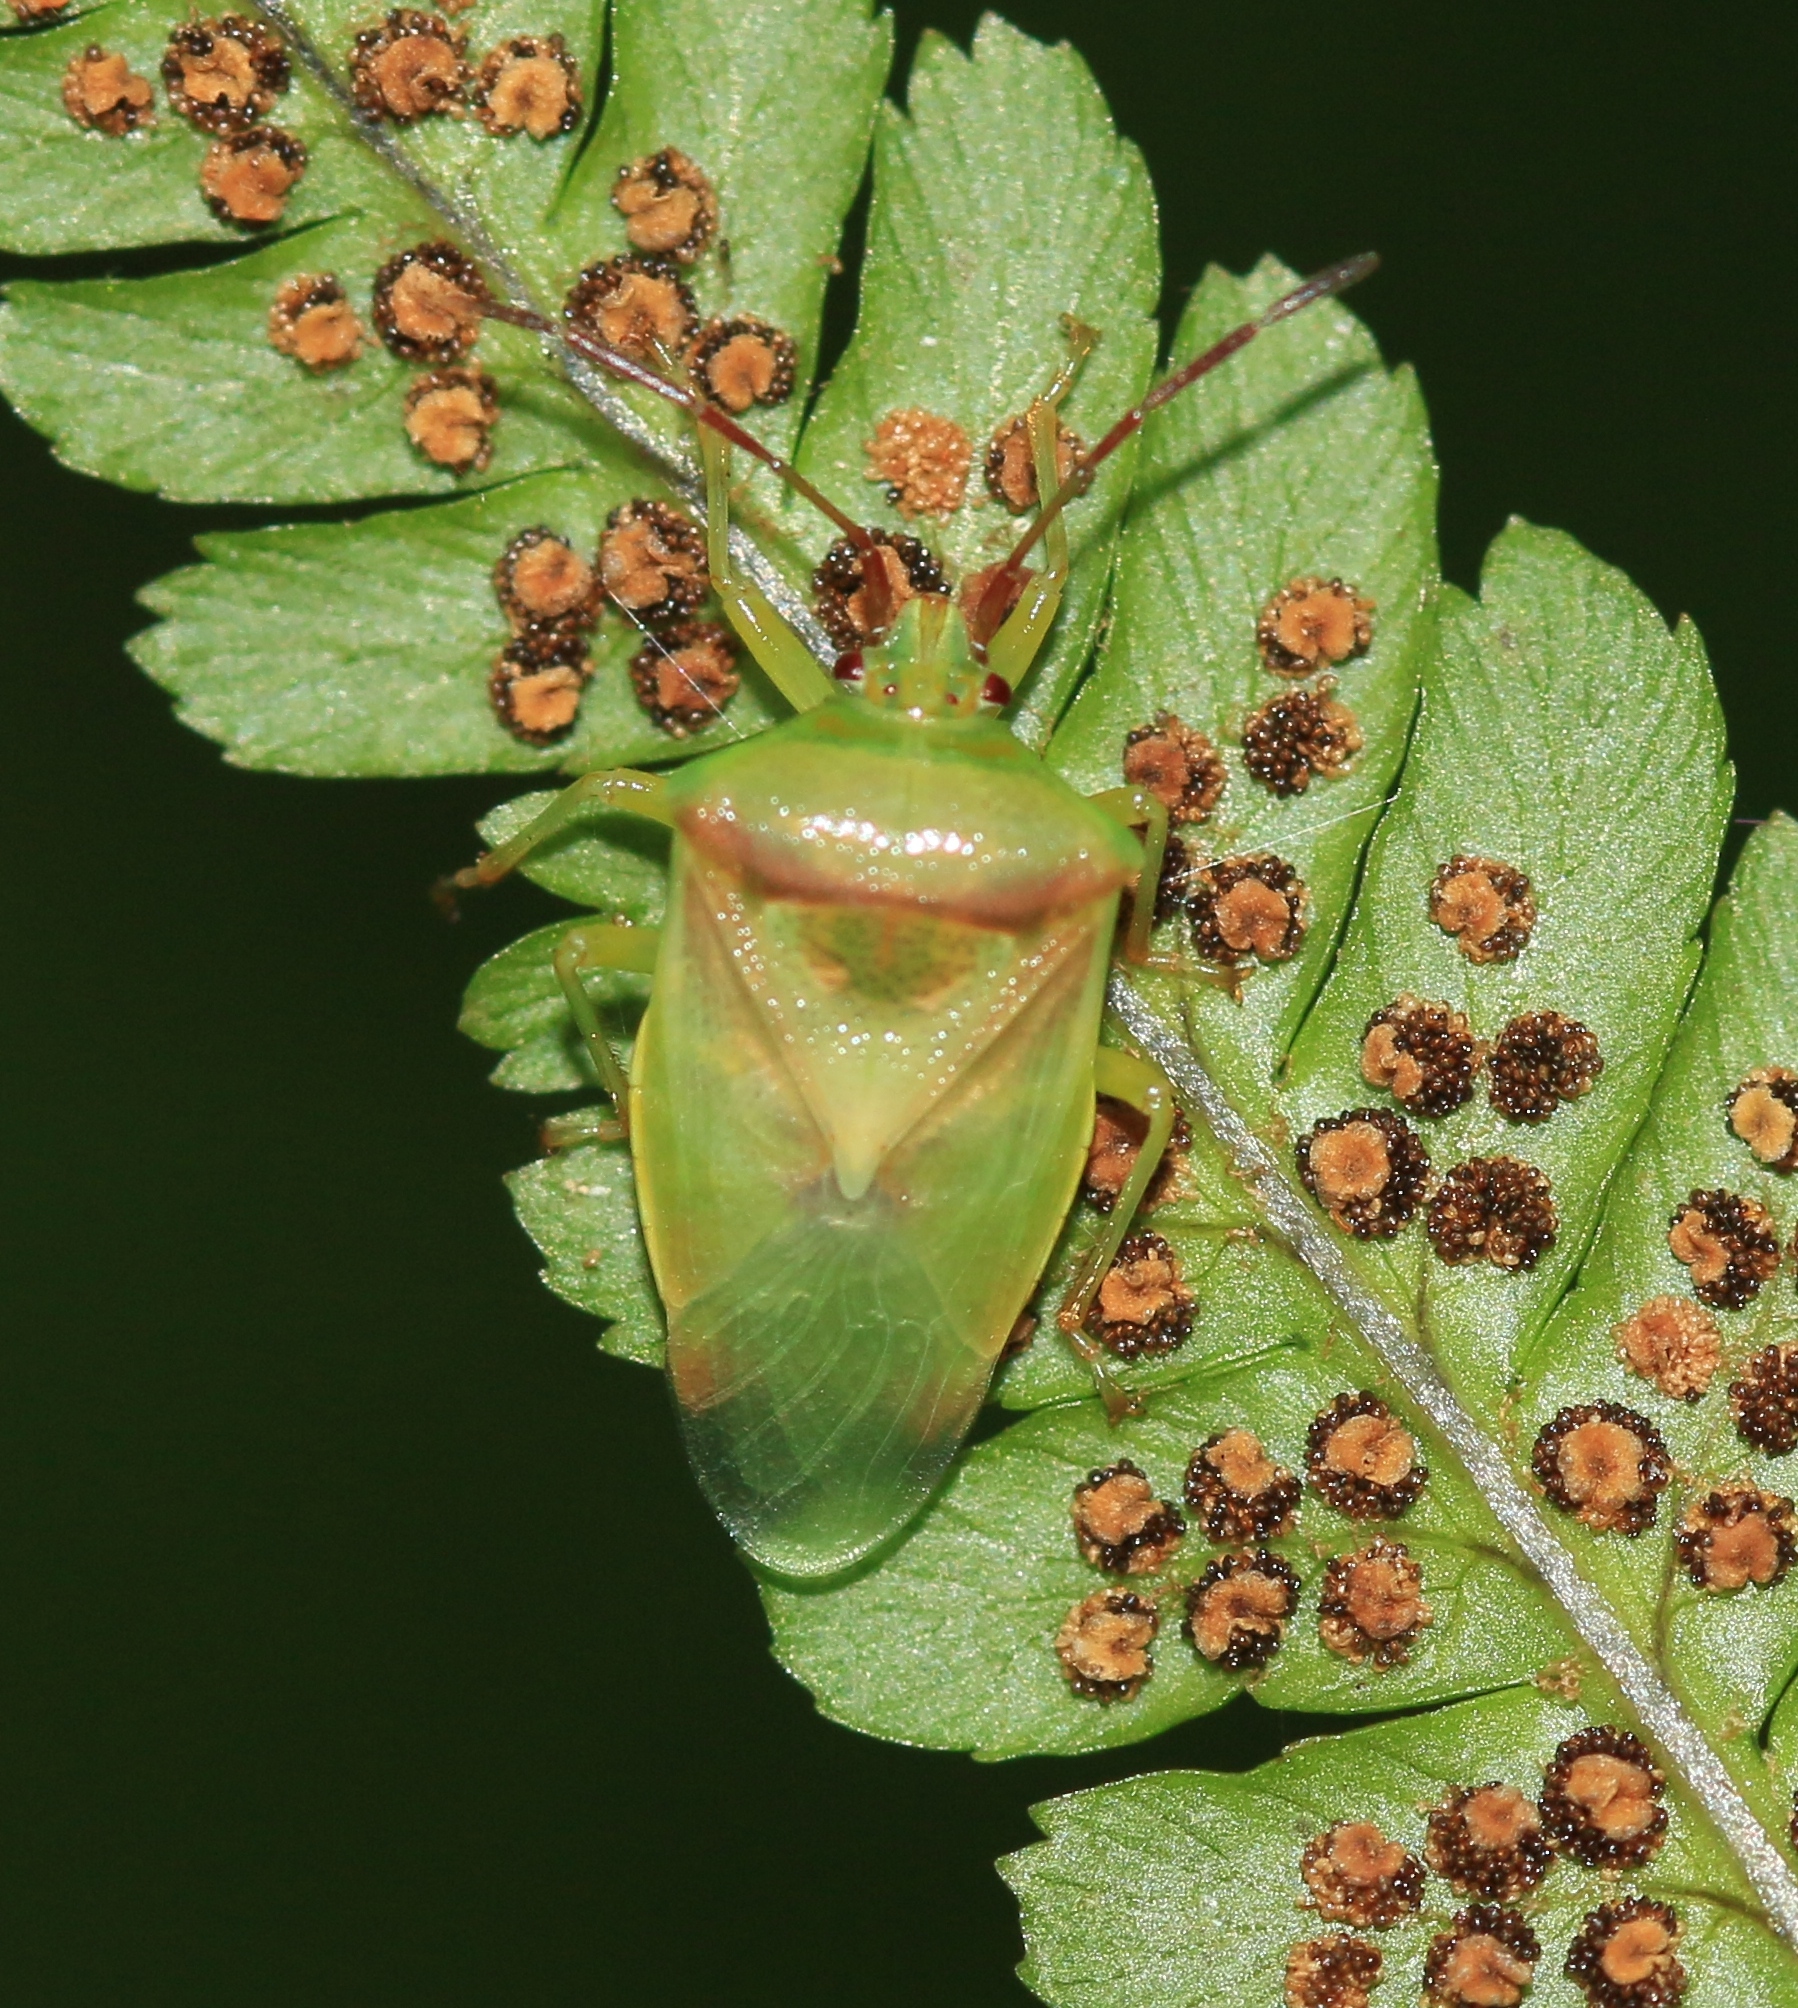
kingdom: Animalia
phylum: Arthropoda
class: Insecta
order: Hemiptera
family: Acanthosomatidae
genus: Elasmostethus
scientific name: Elasmostethus interstinctus
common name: Birch shieldbug
